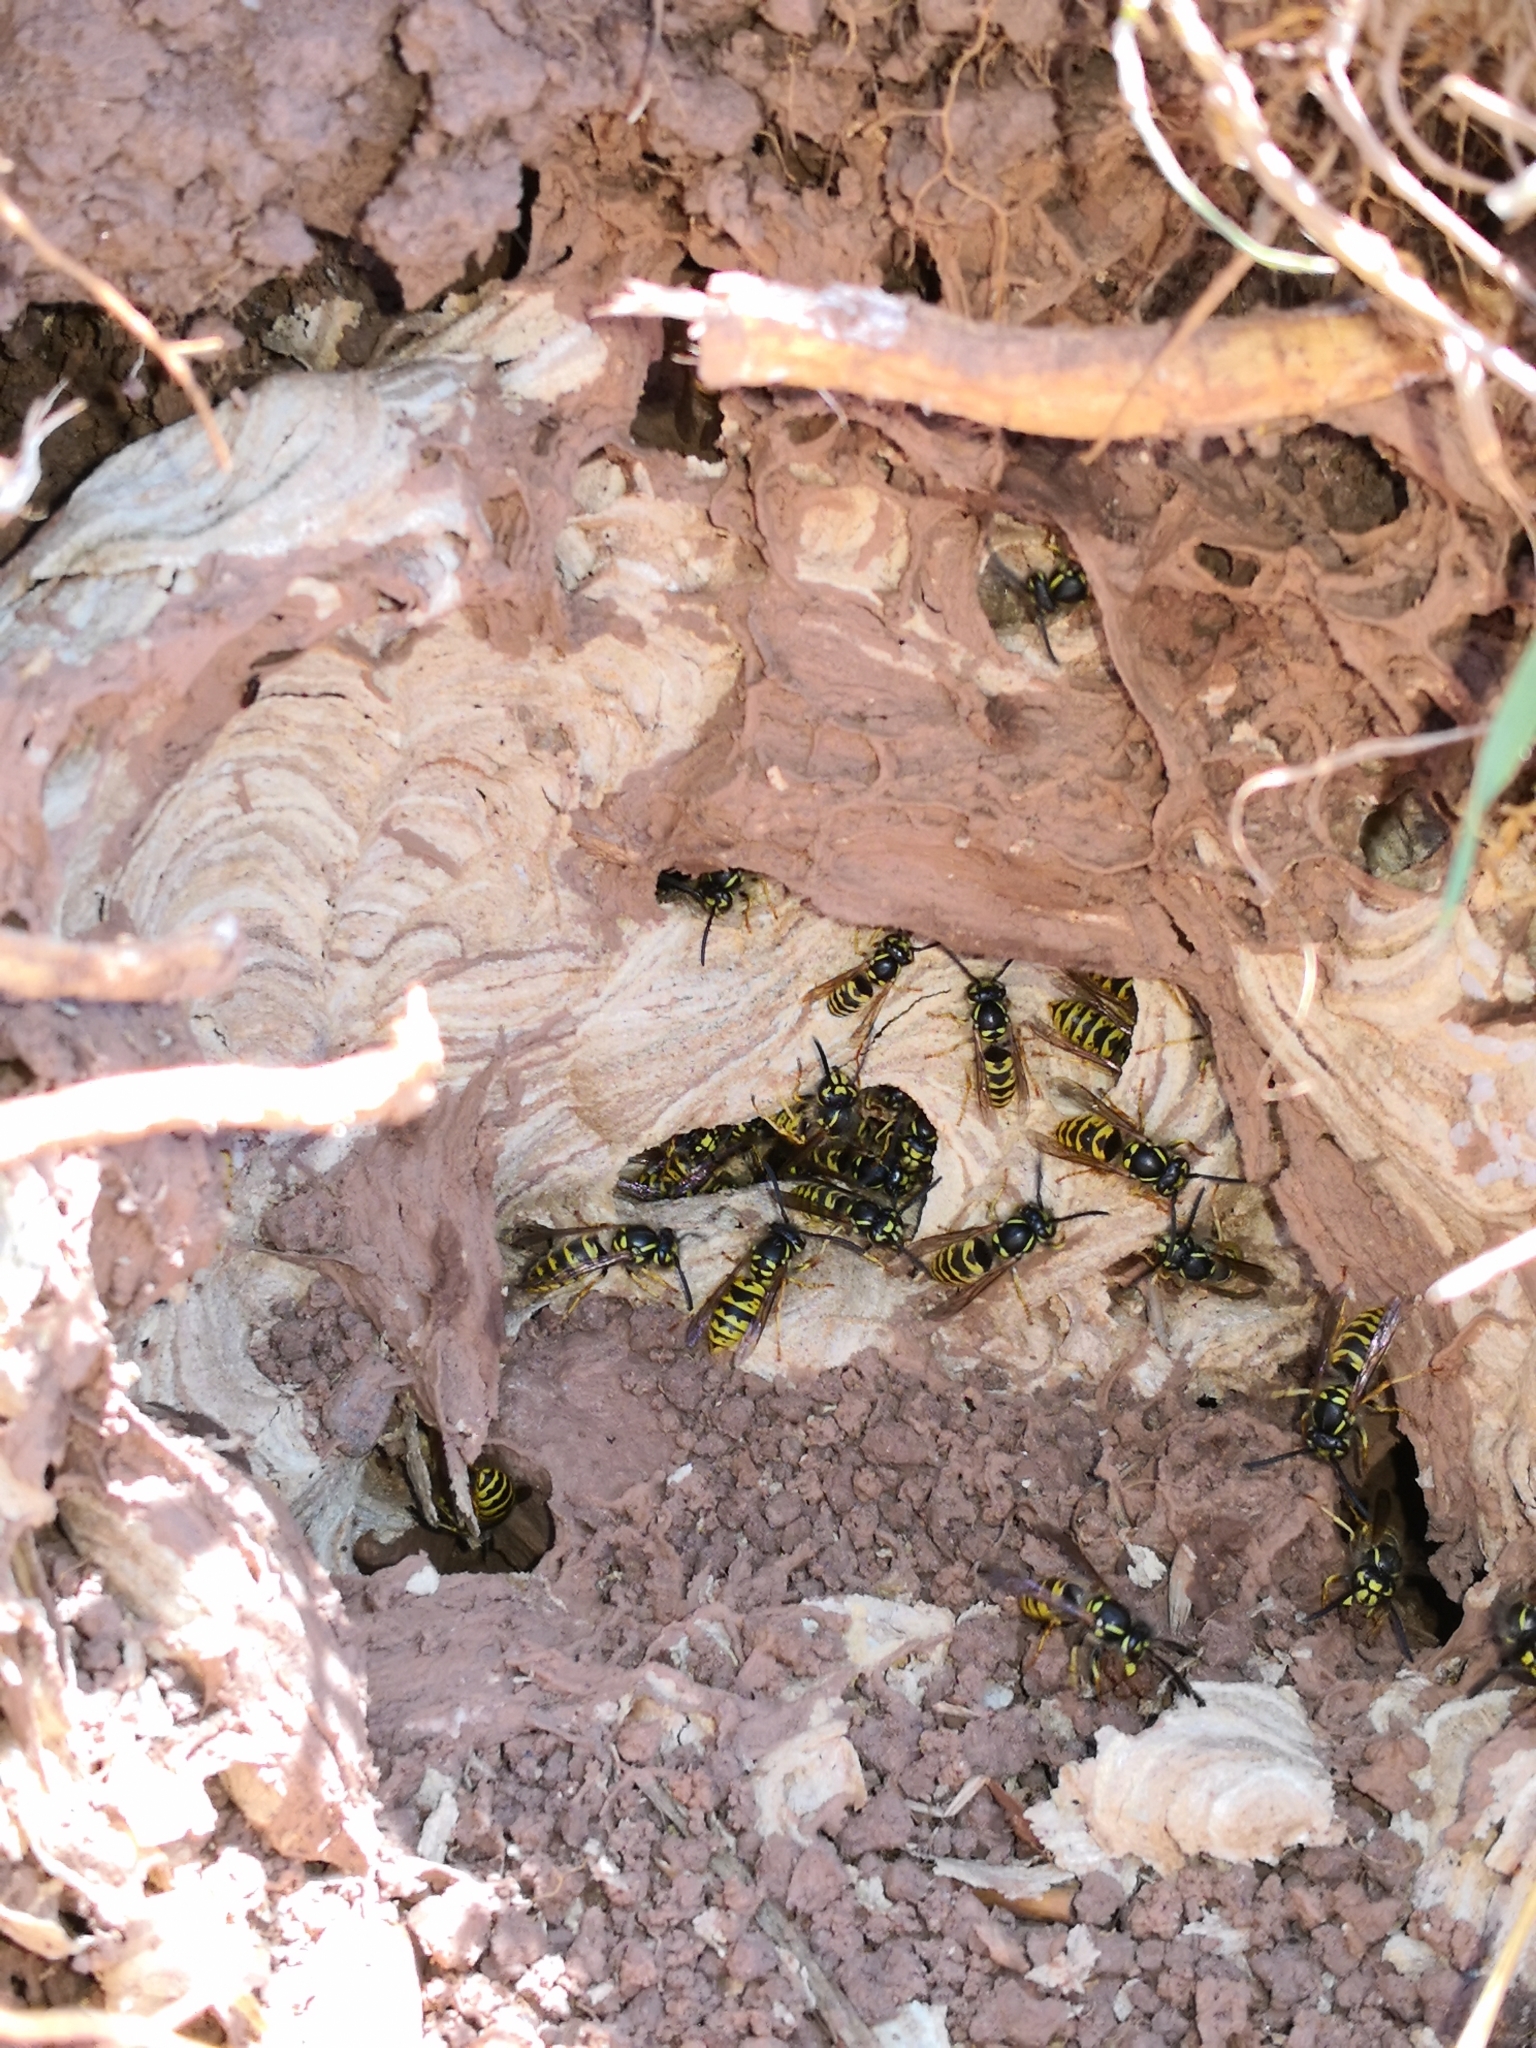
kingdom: Animalia
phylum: Arthropoda
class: Insecta
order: Hymenoptera
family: Vespidae
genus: Vespula
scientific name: Vespula vulgaris
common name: Common wasp
